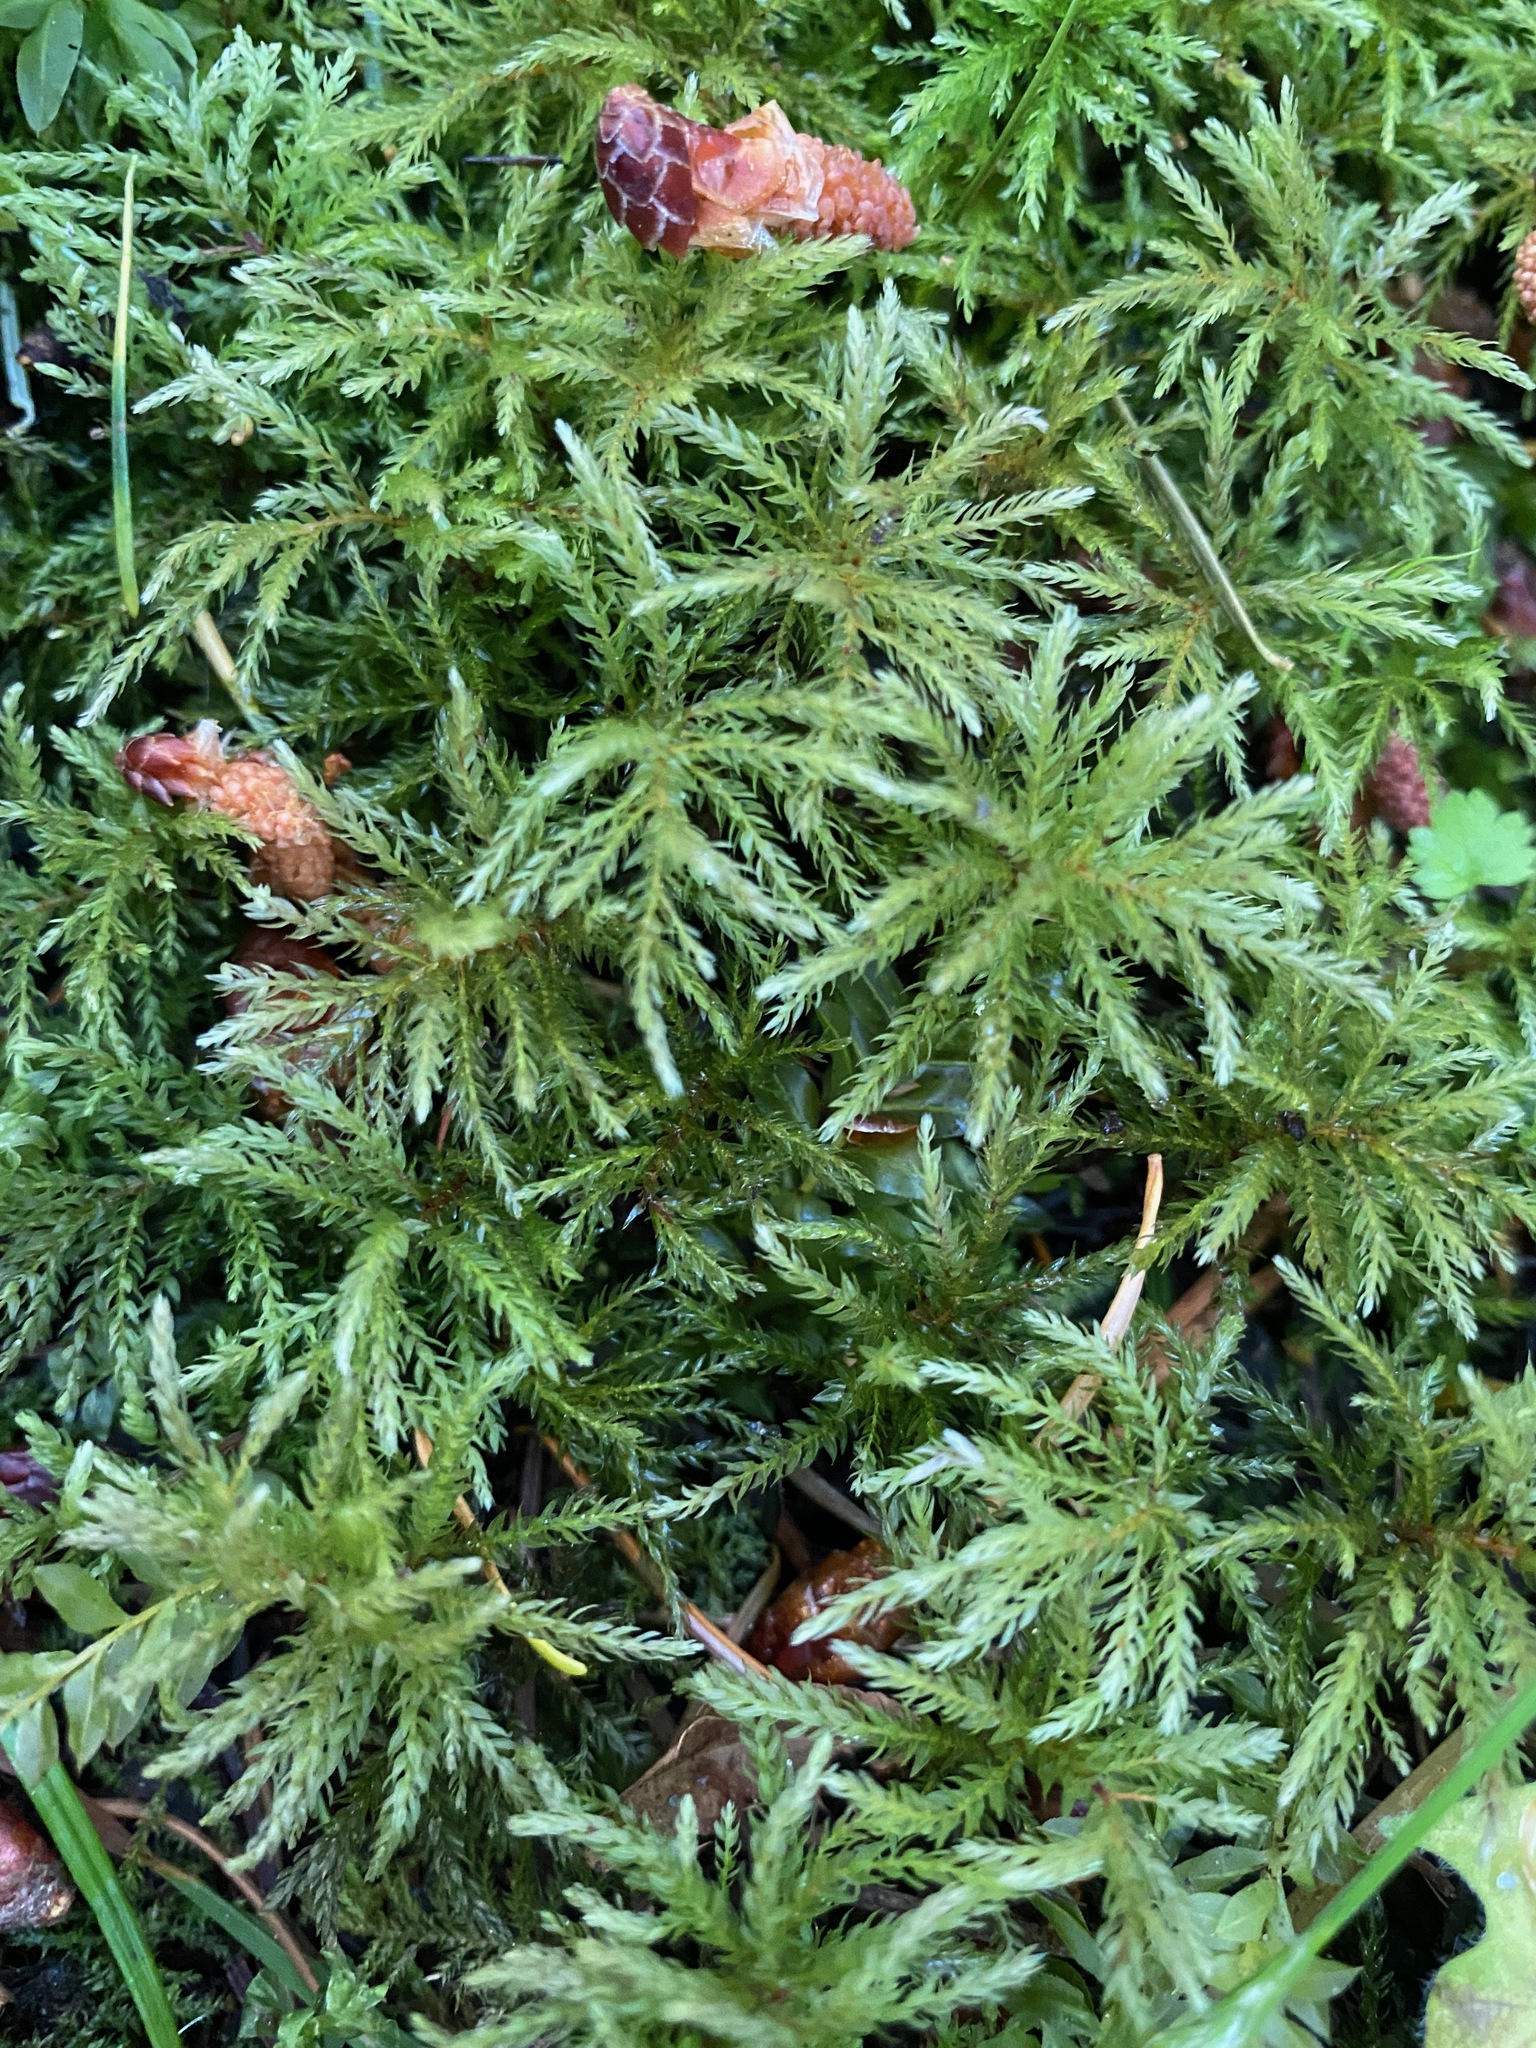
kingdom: Plantae
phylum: Bryophyta
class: Bryopsida
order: Bryales
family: Mniaceae
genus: Leucolepis
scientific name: Leucolepis acanthoneura
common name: Leucolepis umbrella moss
